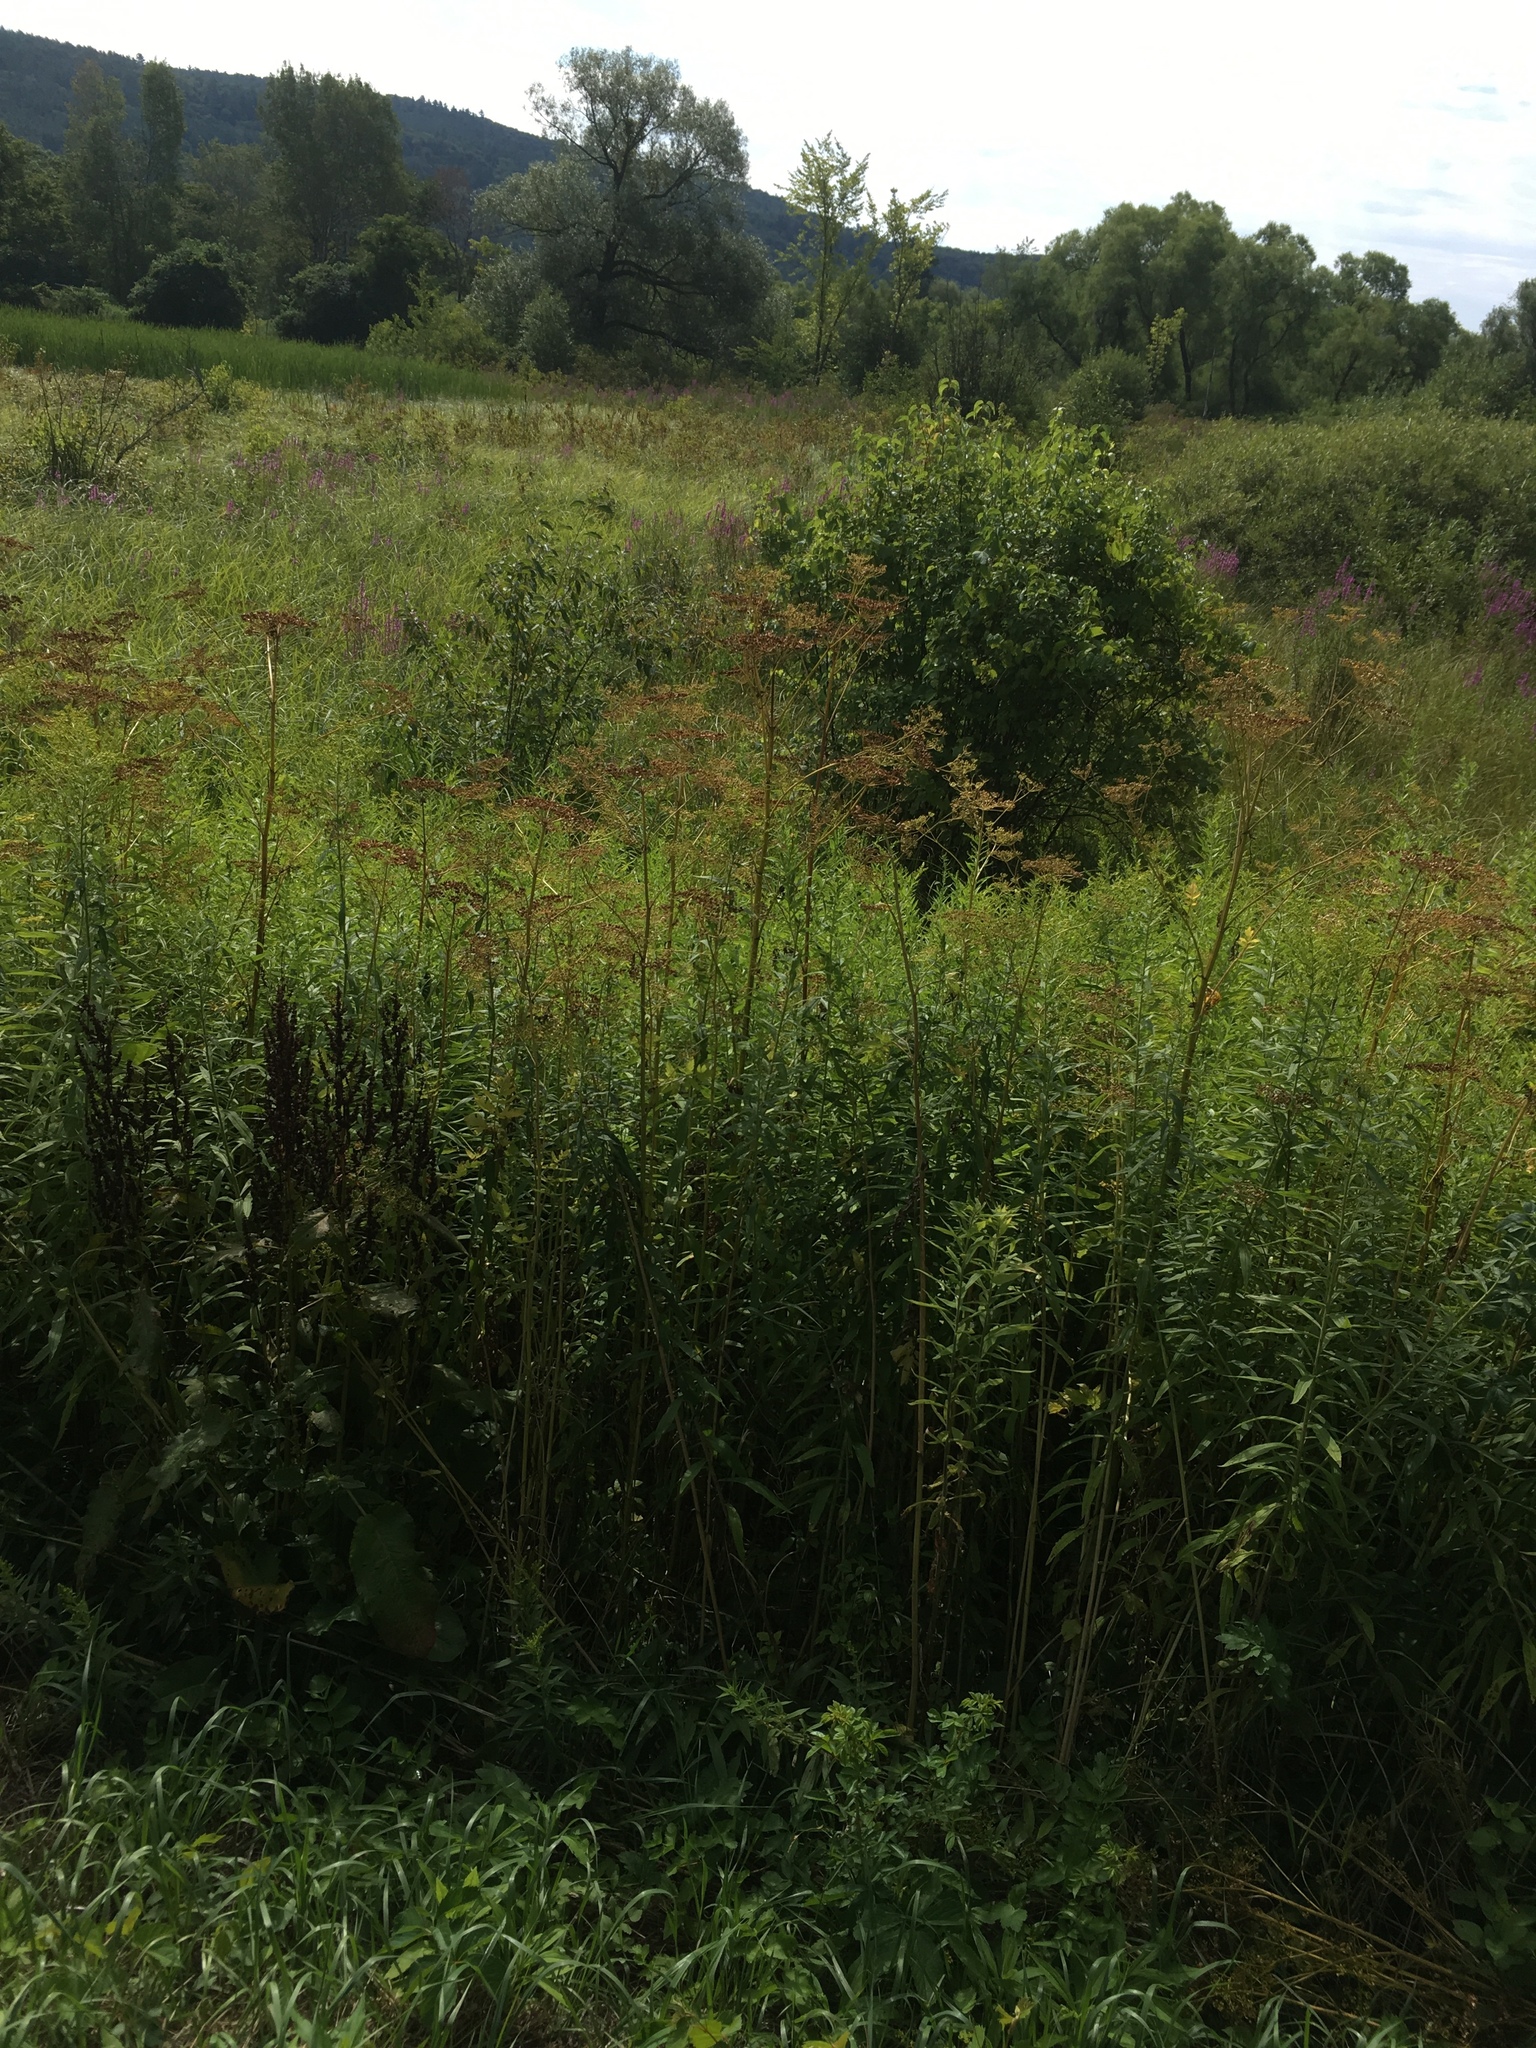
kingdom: Plantae
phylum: Tracheophyta
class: Magnoliopsida
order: Apiales
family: Apiaceae
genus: Pastinaca
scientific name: Pastinaca sativa
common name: Wild parsnip
